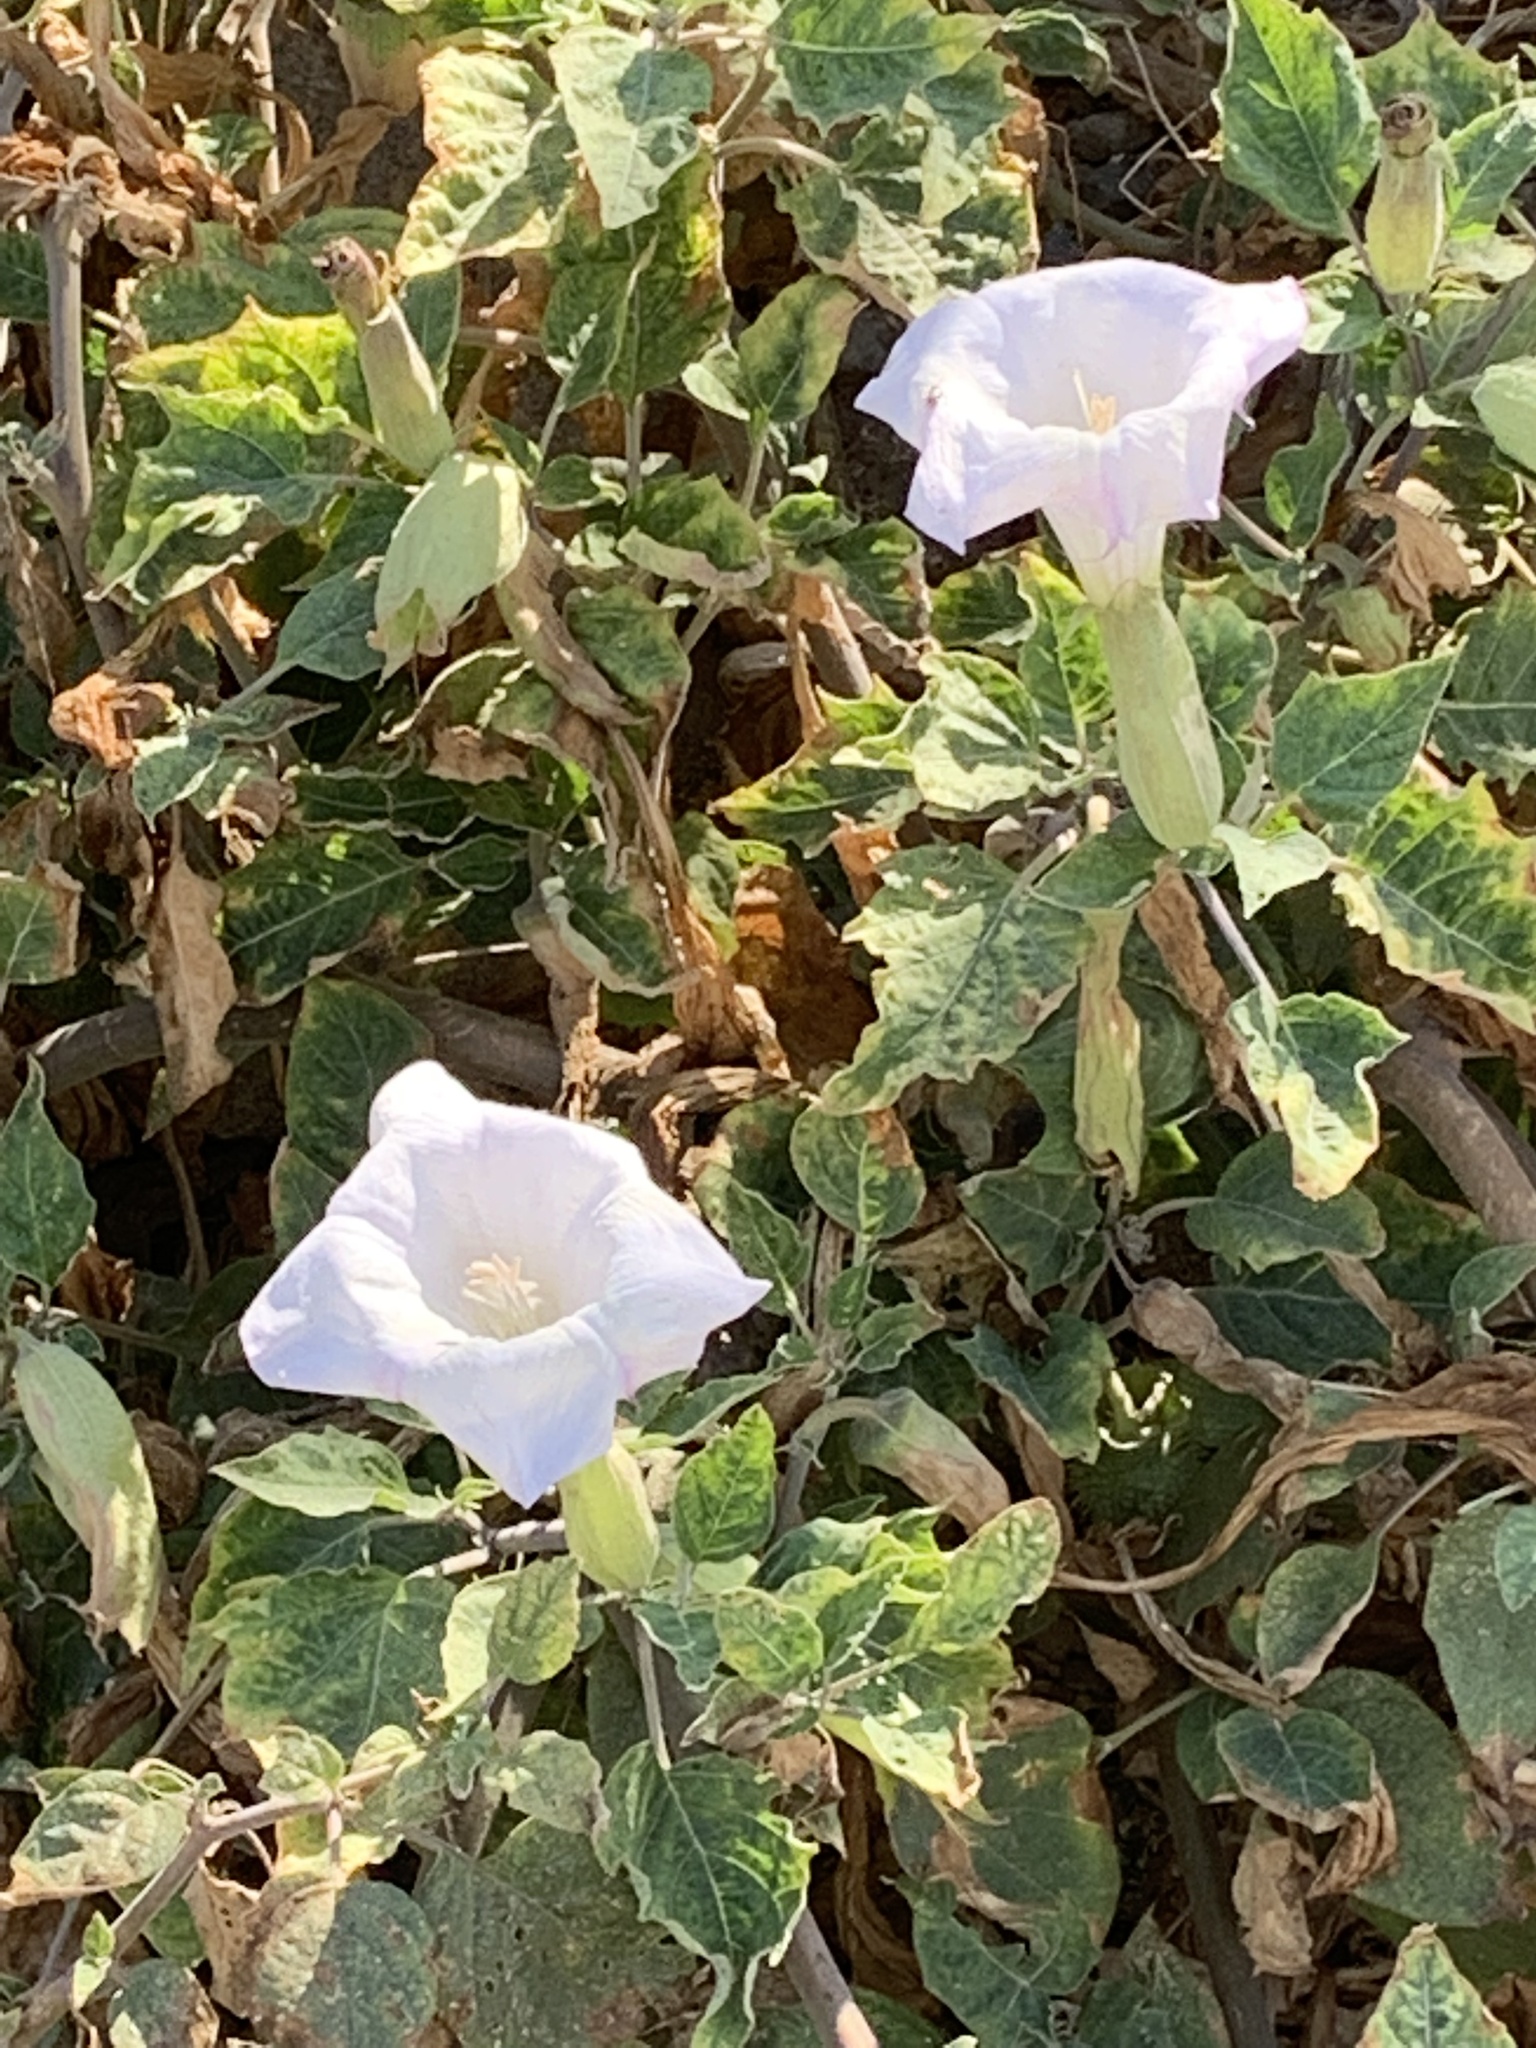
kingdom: Plantae
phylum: Tracheophyta
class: Magnoliopsida
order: Solanales
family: Solanaceae
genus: Datura
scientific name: Datura wrightii
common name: Sacred thorn-apple
